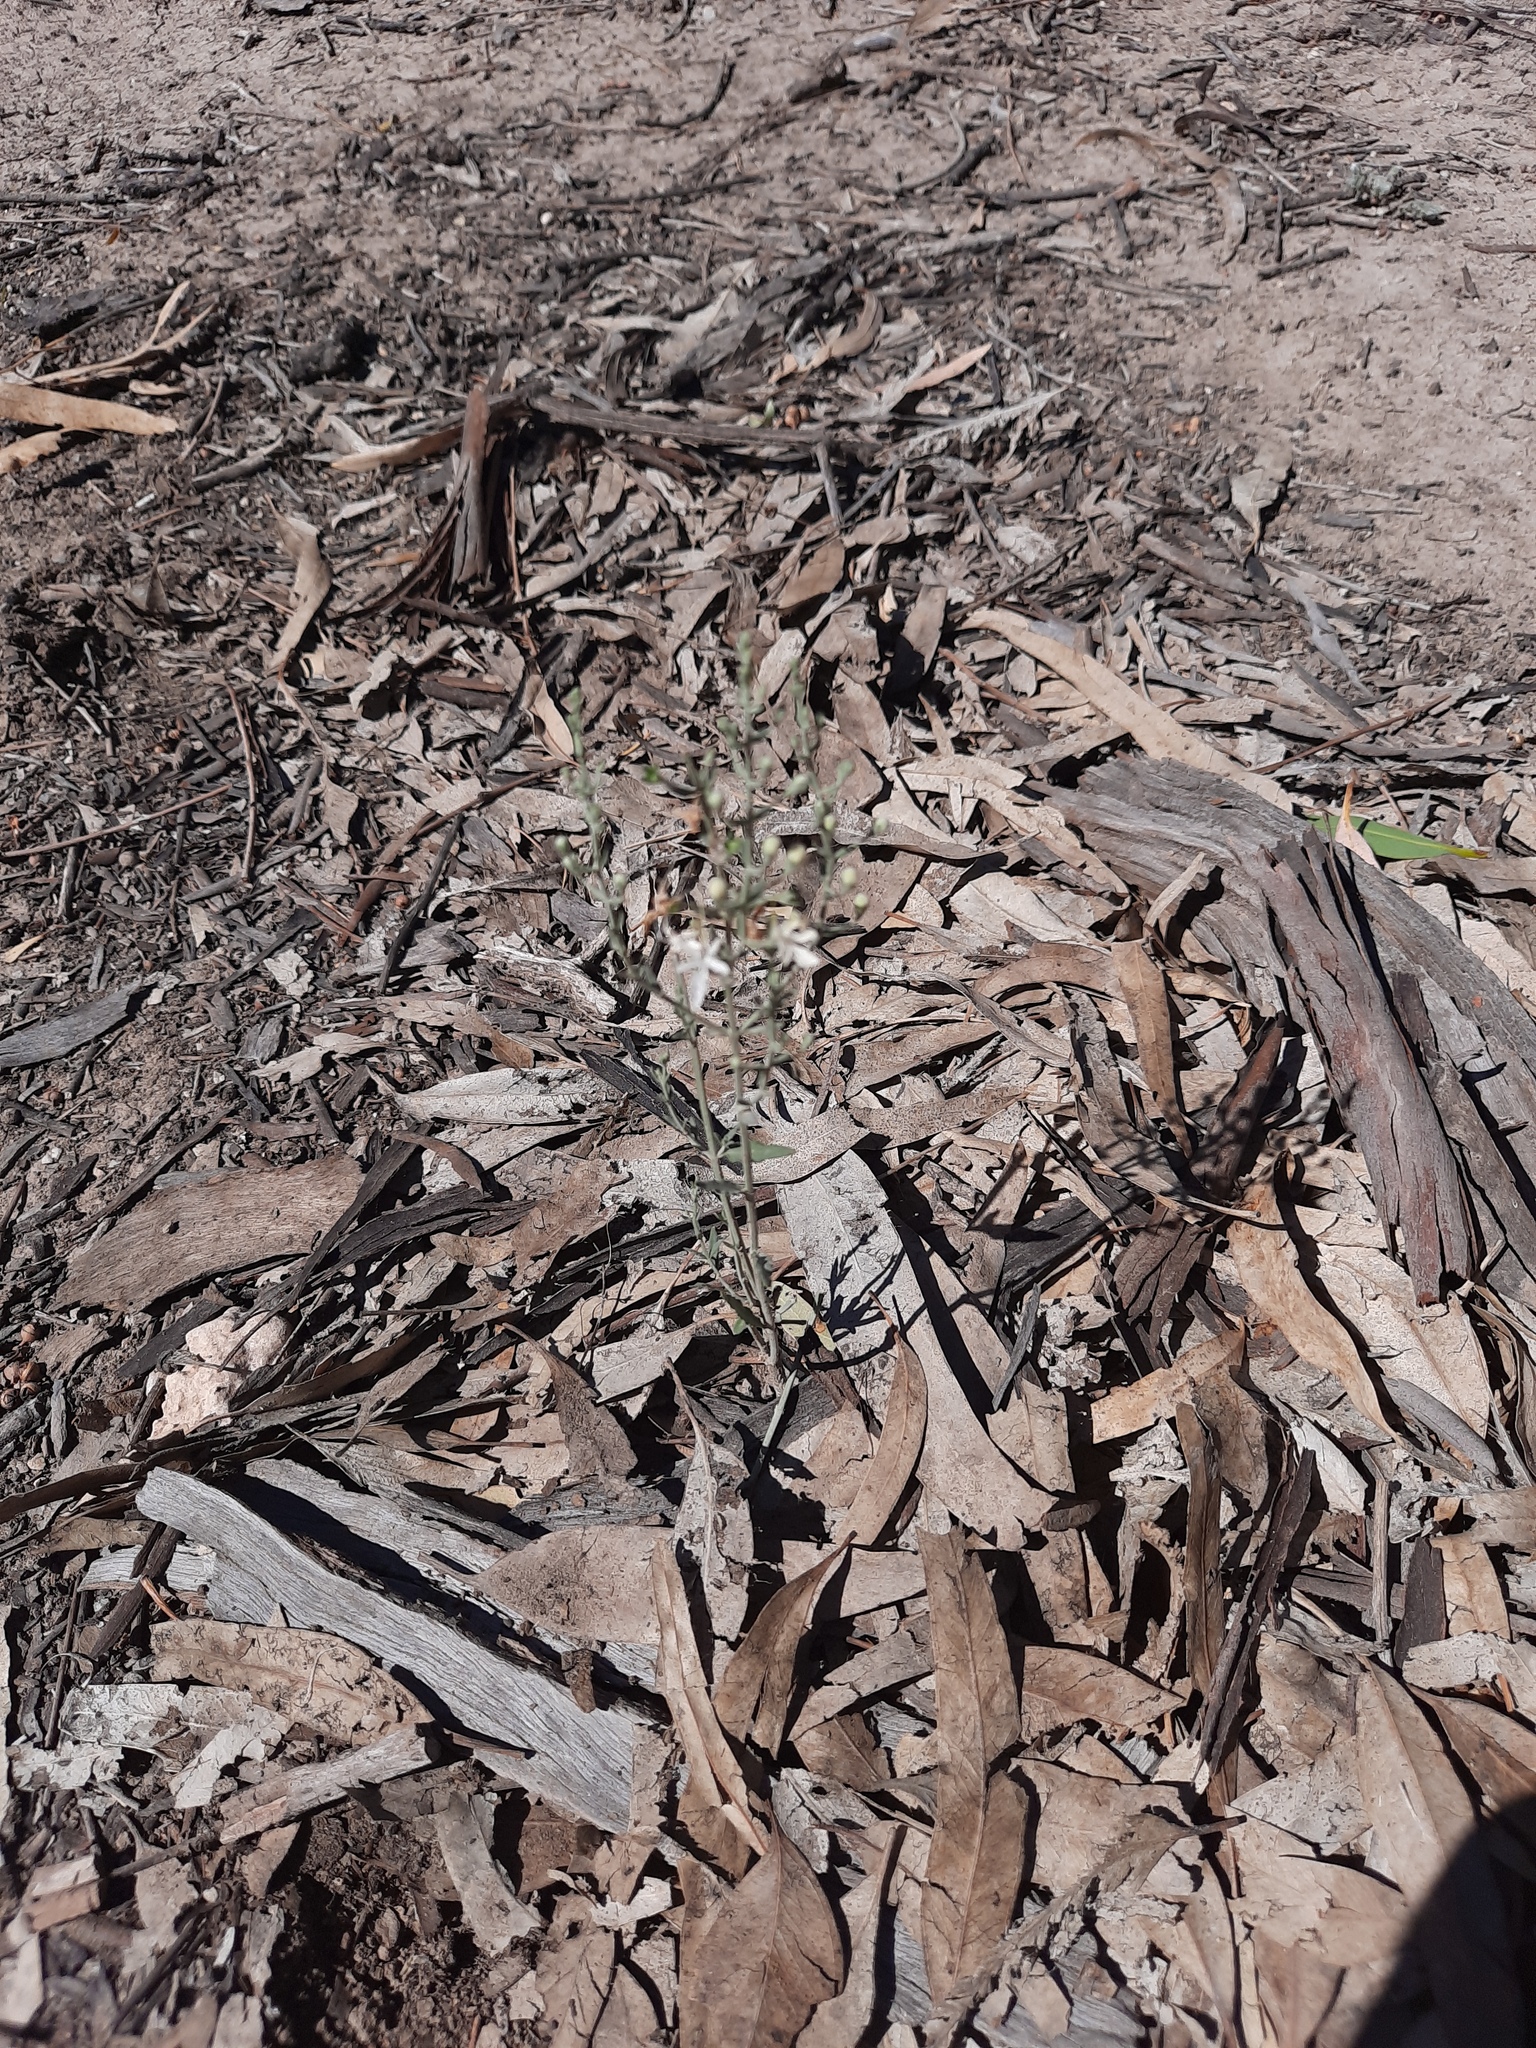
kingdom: Plantae
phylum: Tracheophyta
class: Magnoliopsida
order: Lamiales
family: Lamiaceae
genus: Teucrium
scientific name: Teucrium racemosum
